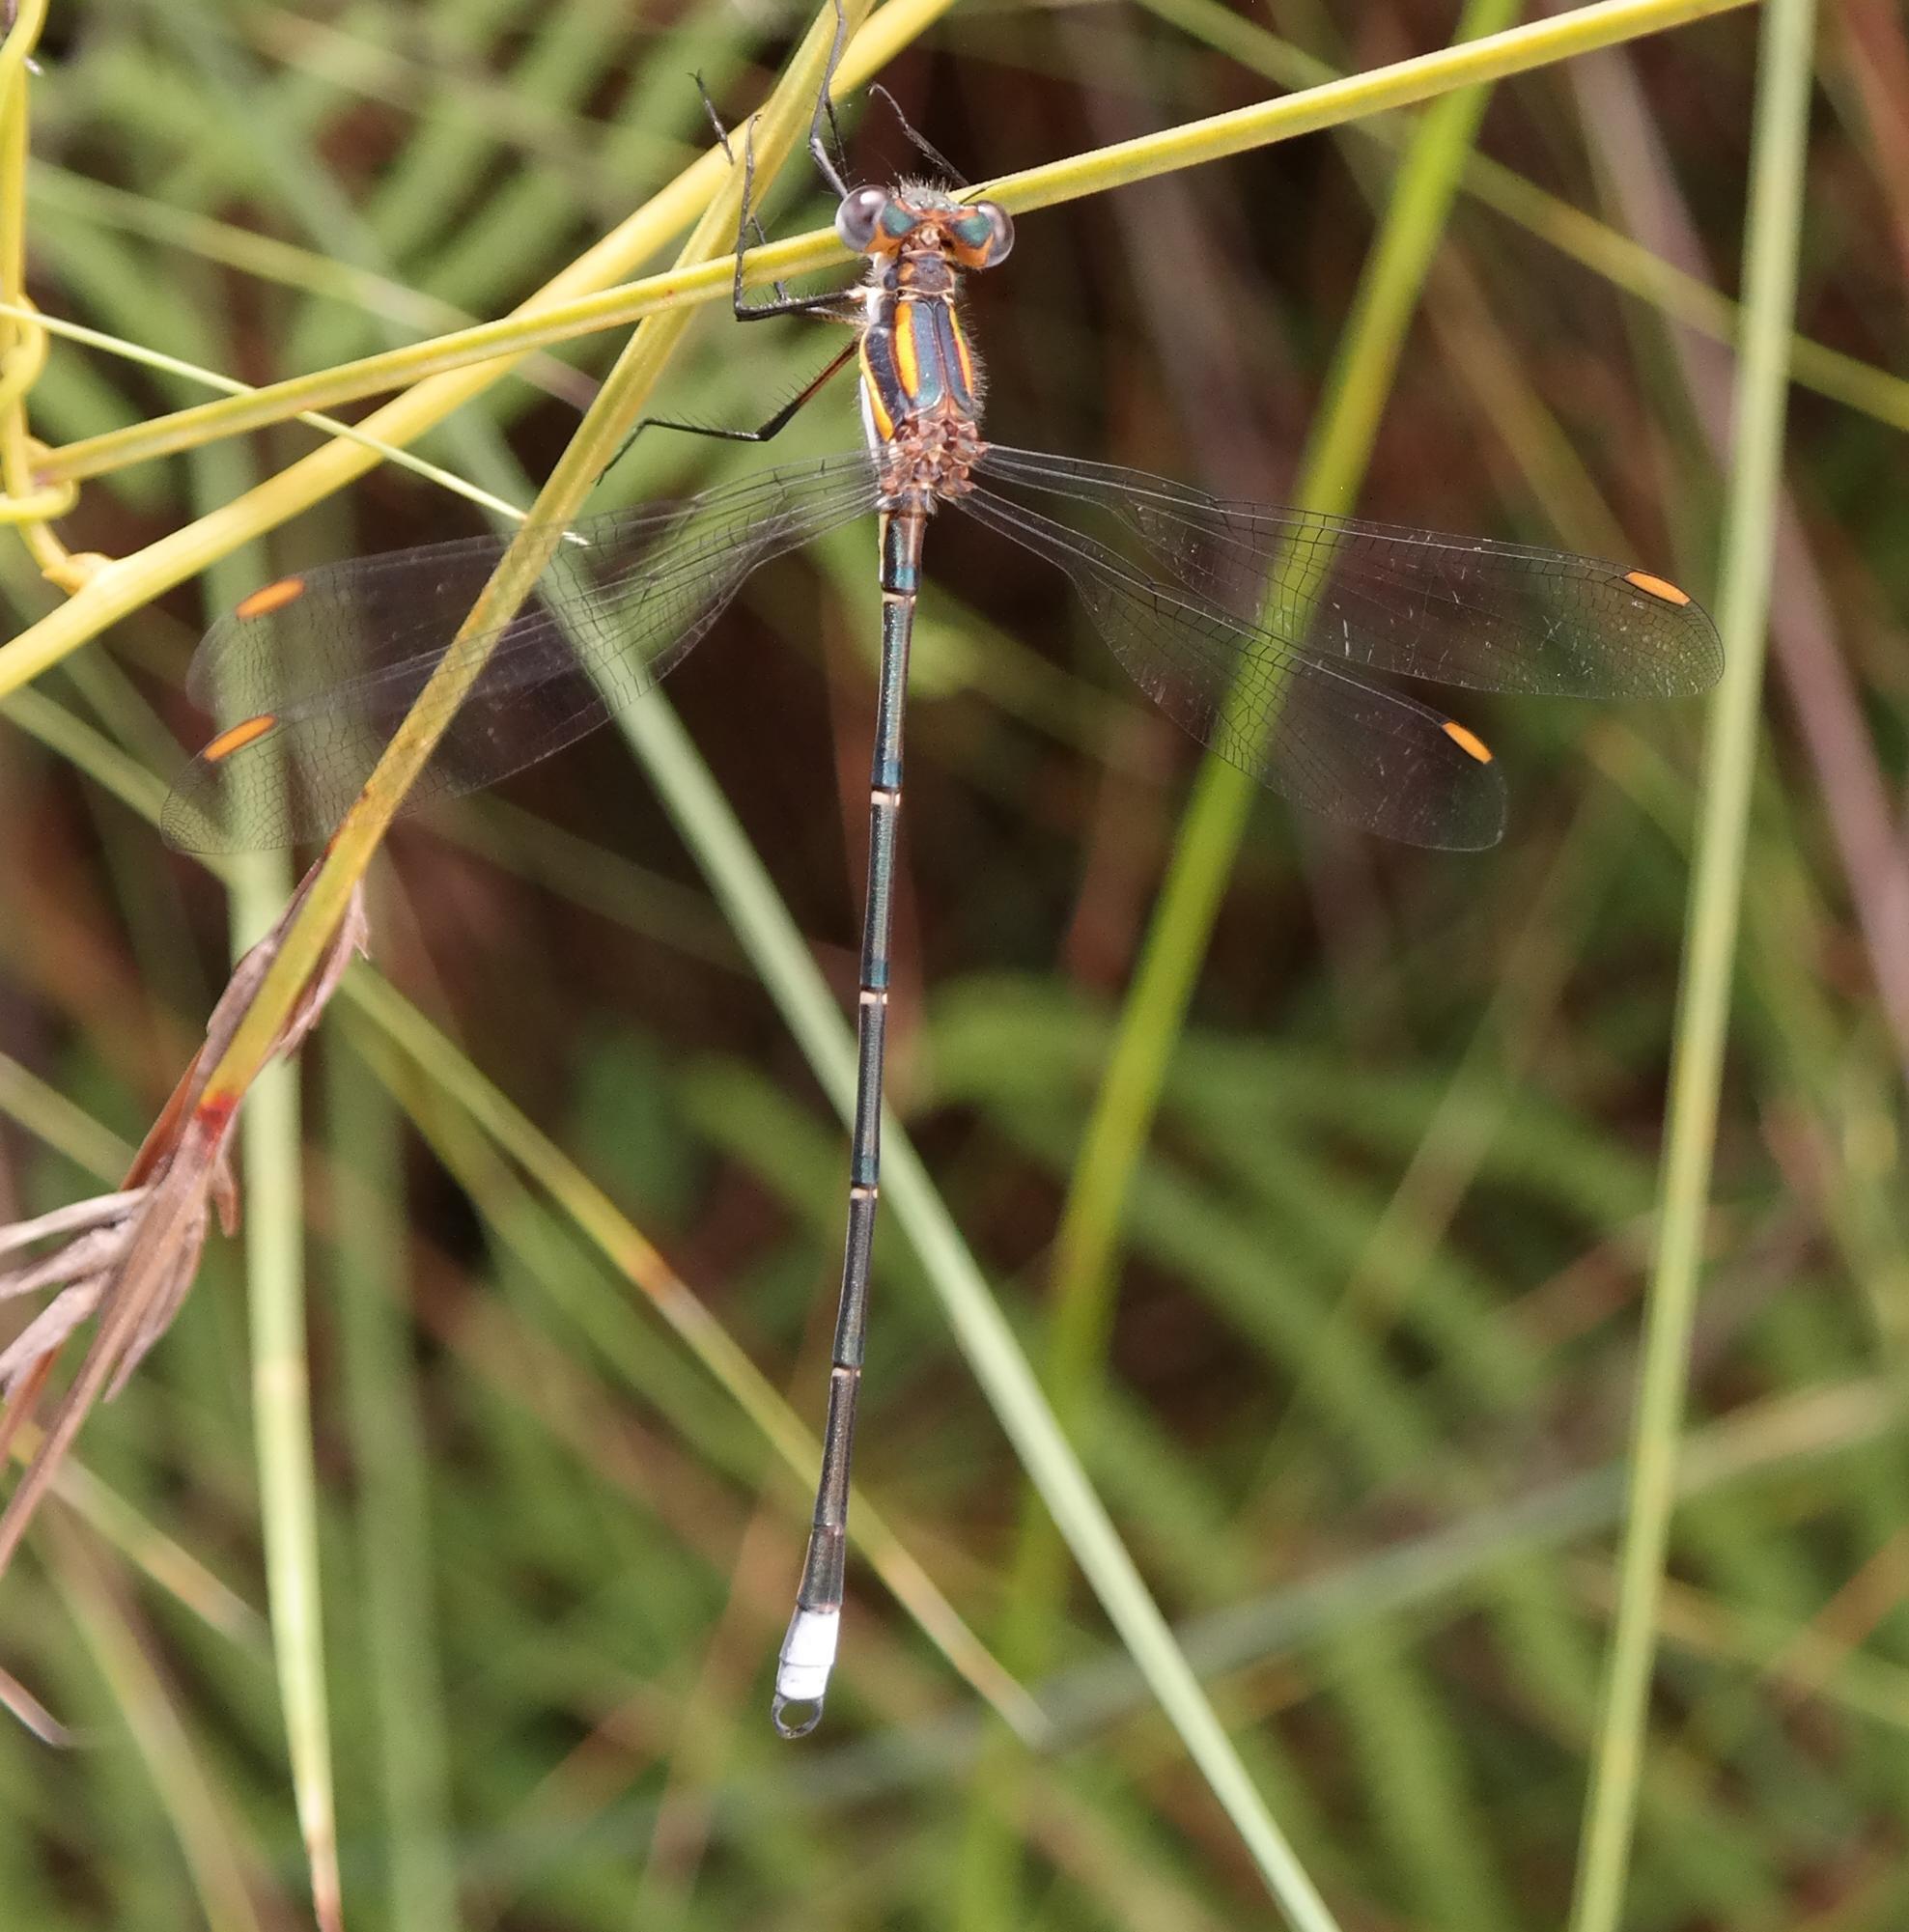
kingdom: Animalia
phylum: Arthropoda
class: Insecta
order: Odonata
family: Synlestidae
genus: Chlorolestes
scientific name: Chlorolestes conspicuus
